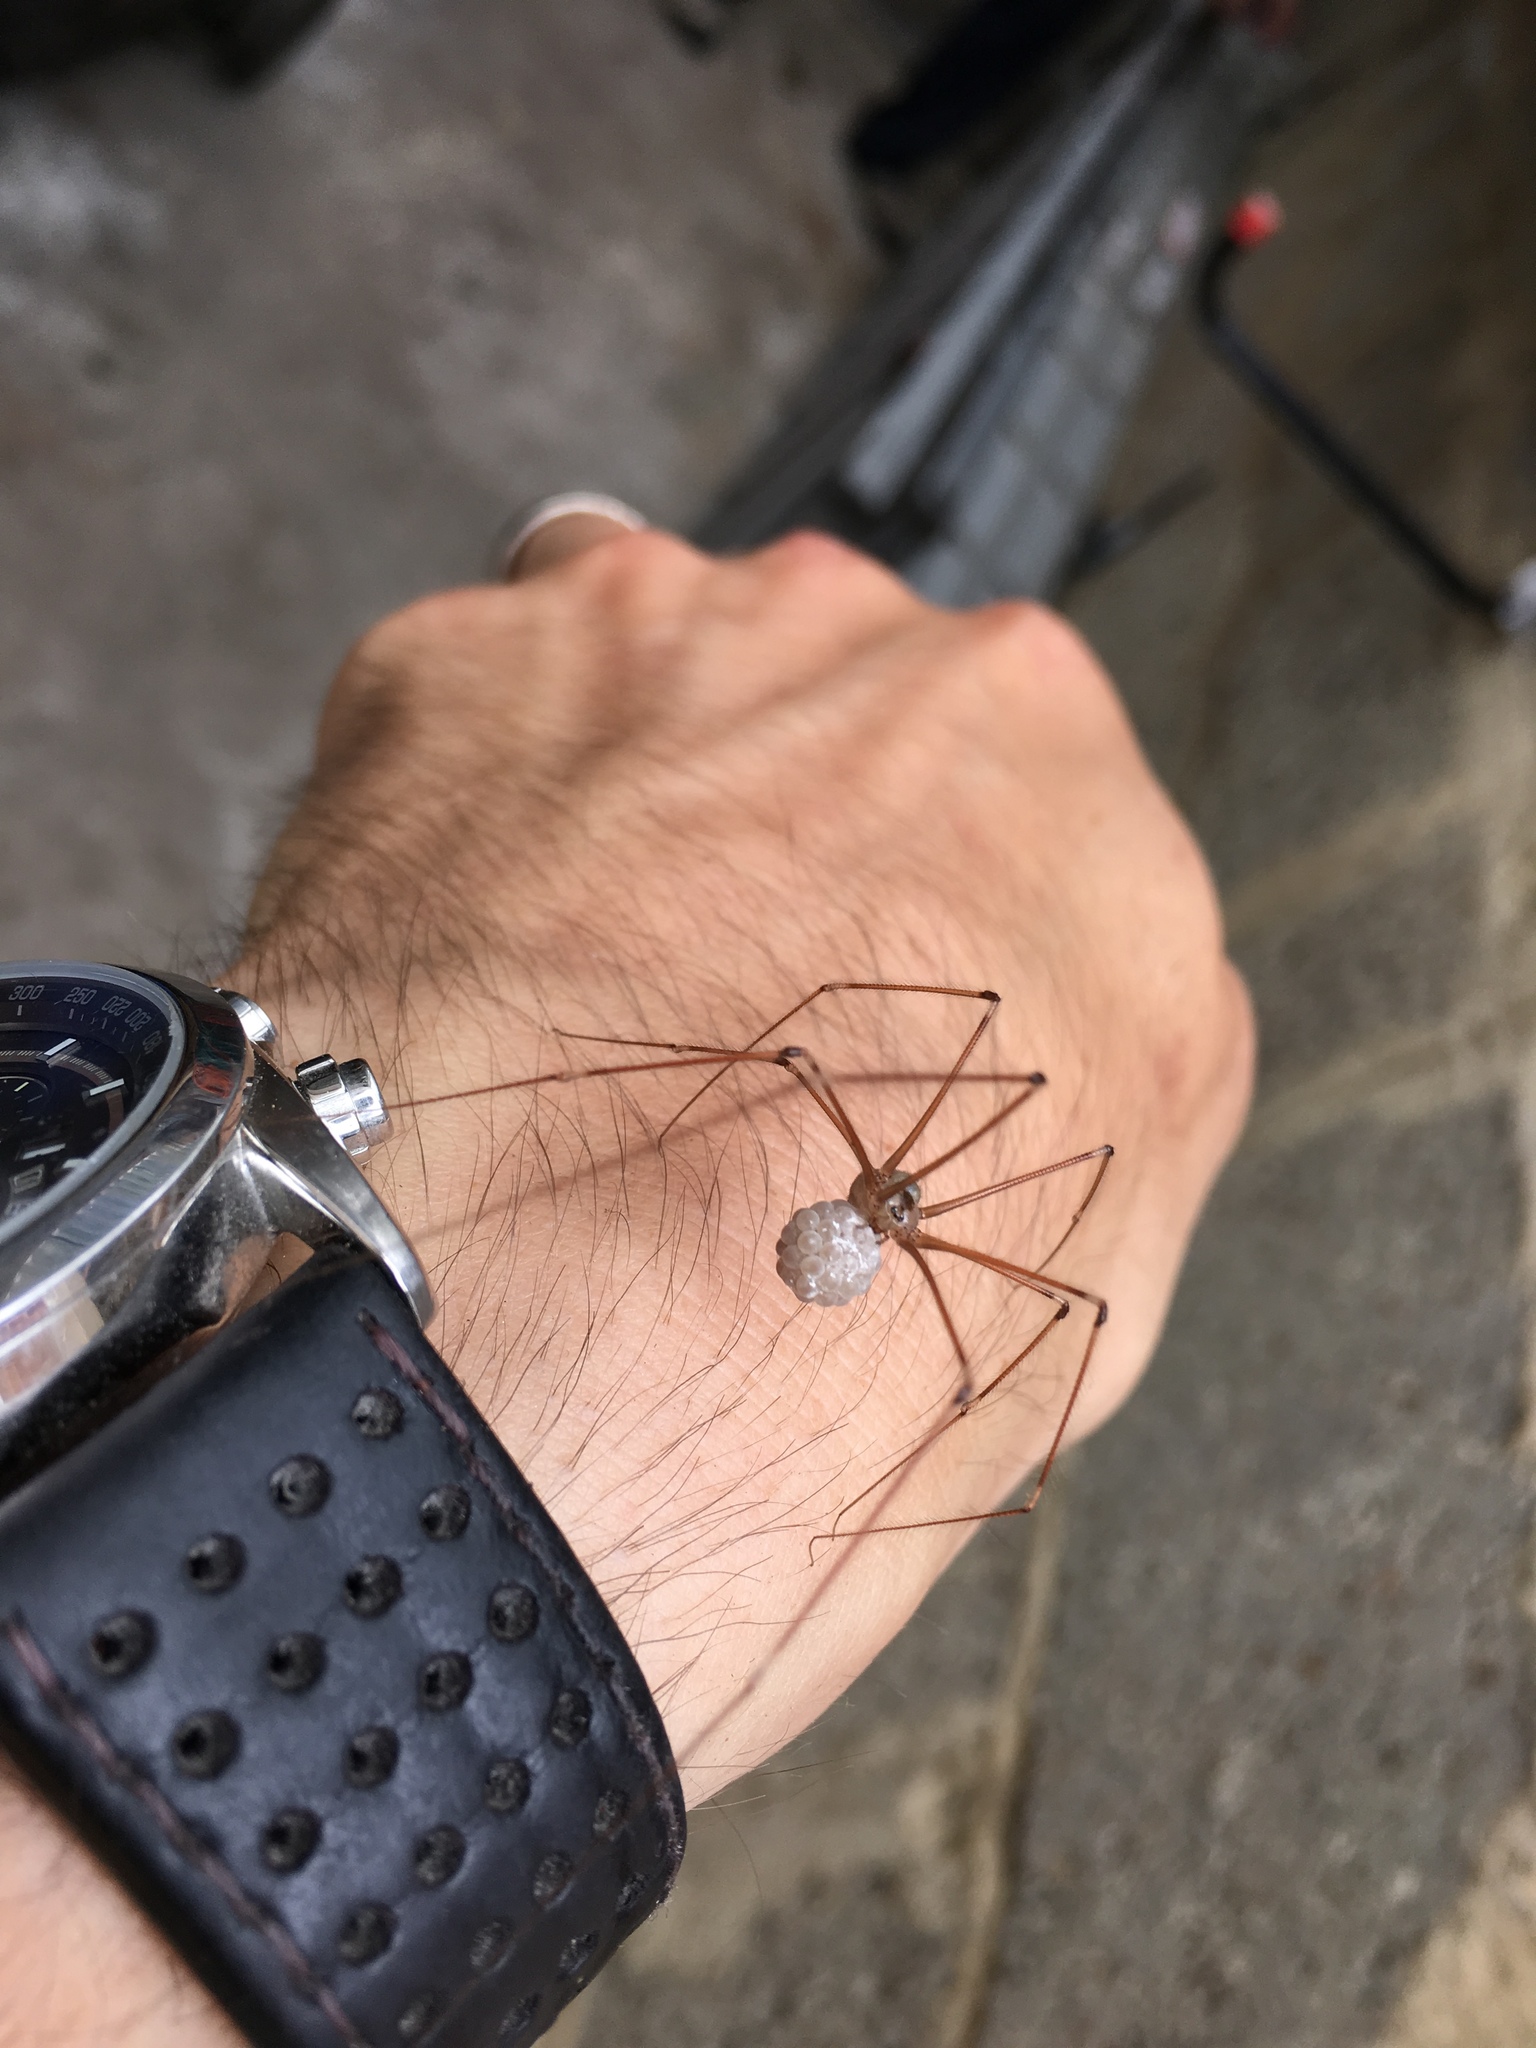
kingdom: Animalia
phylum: Arthropoda
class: Arachnida
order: Araneae
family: Pholcidae
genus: Pholcus
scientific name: Pholcus phalangioides
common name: Longbodied cellar spider
